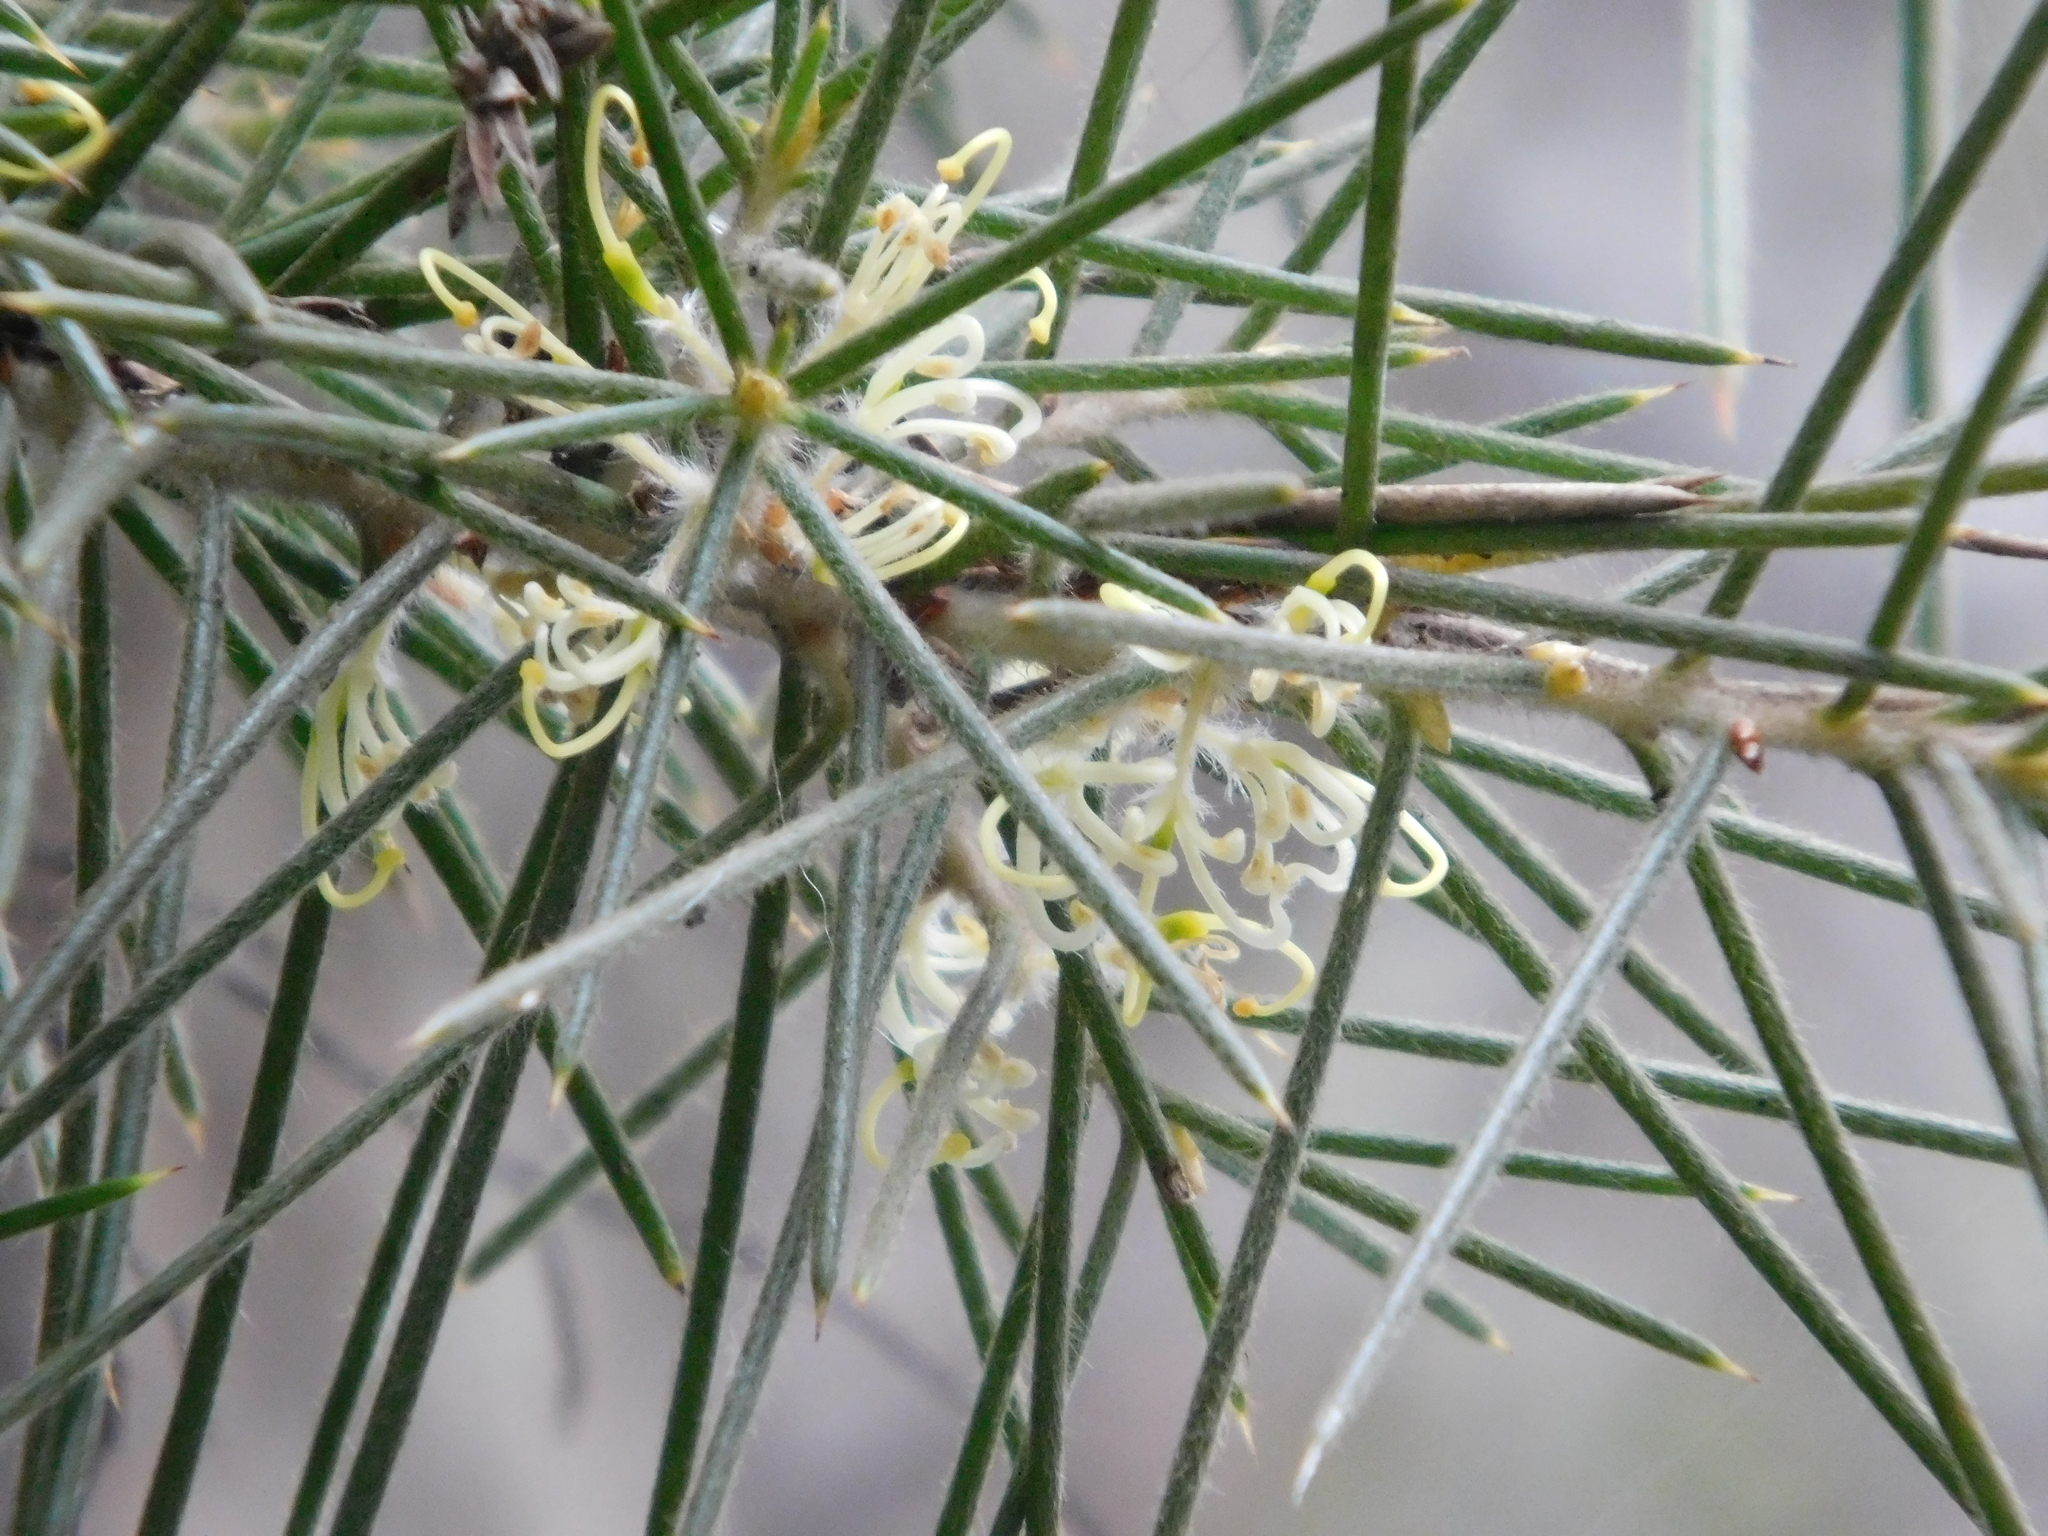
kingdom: Plantae
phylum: Tracheophyta
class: Magnoliopsida
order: Proteales
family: Proteaceae
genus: Hakea
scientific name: Hakea gibbosa
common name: Rock hakea
